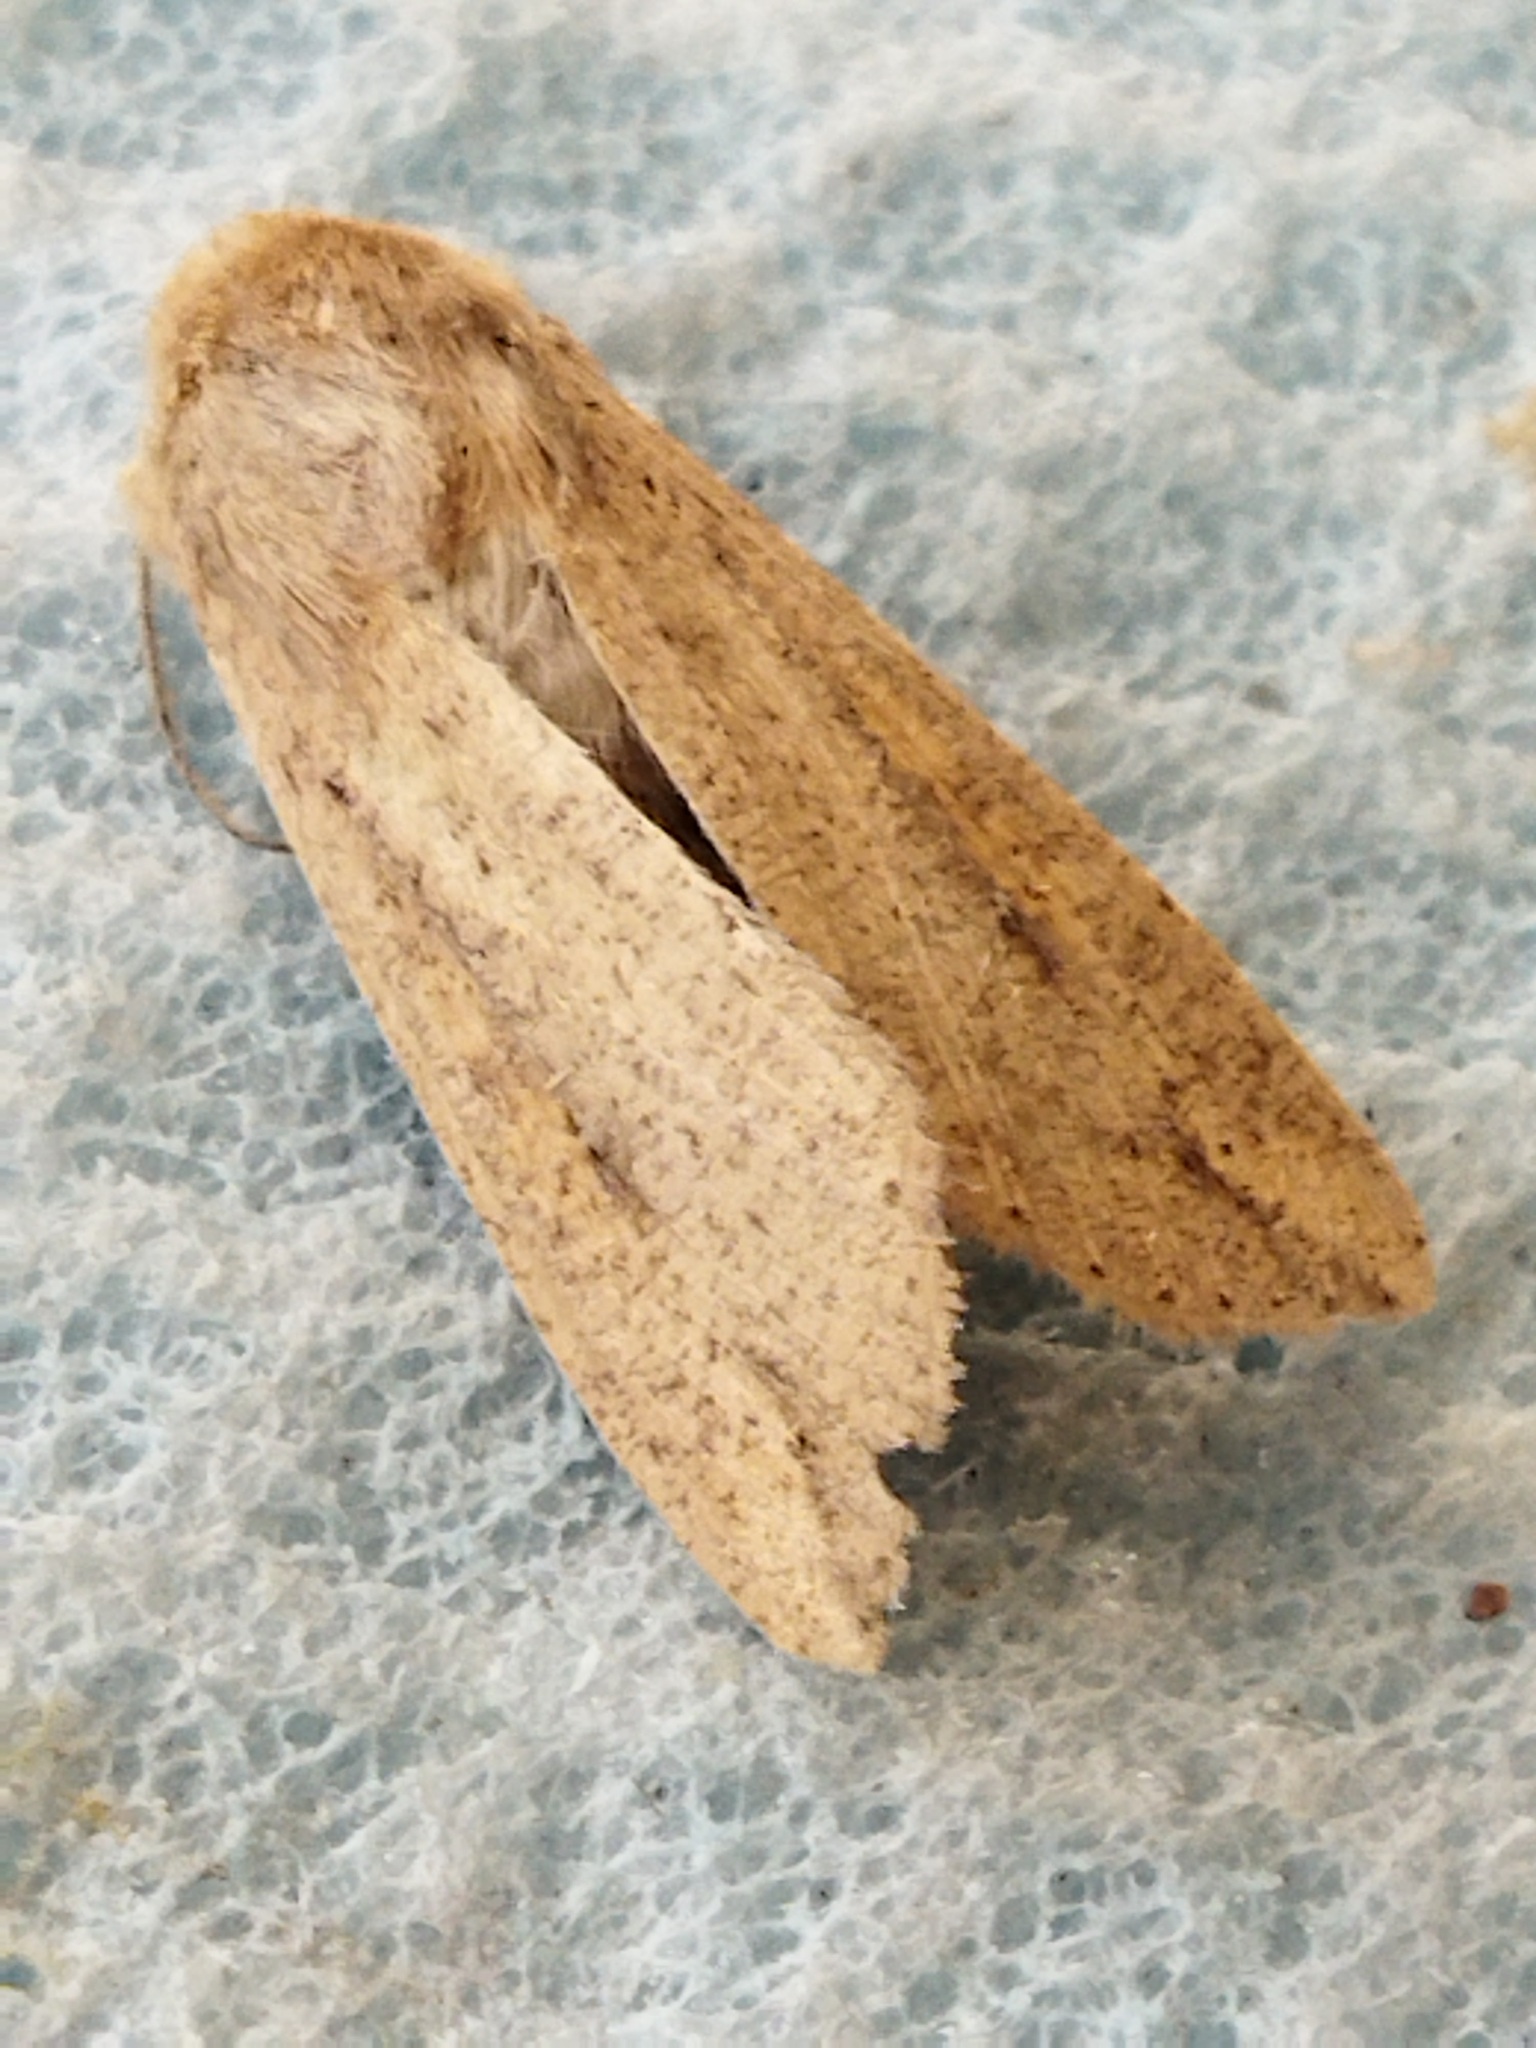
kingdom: Animalia
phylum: Arthropoda
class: Insecta
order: Lepidoptera
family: Noctuidae
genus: Mythimna
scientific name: Mythimna unipuncta
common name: White-speck
